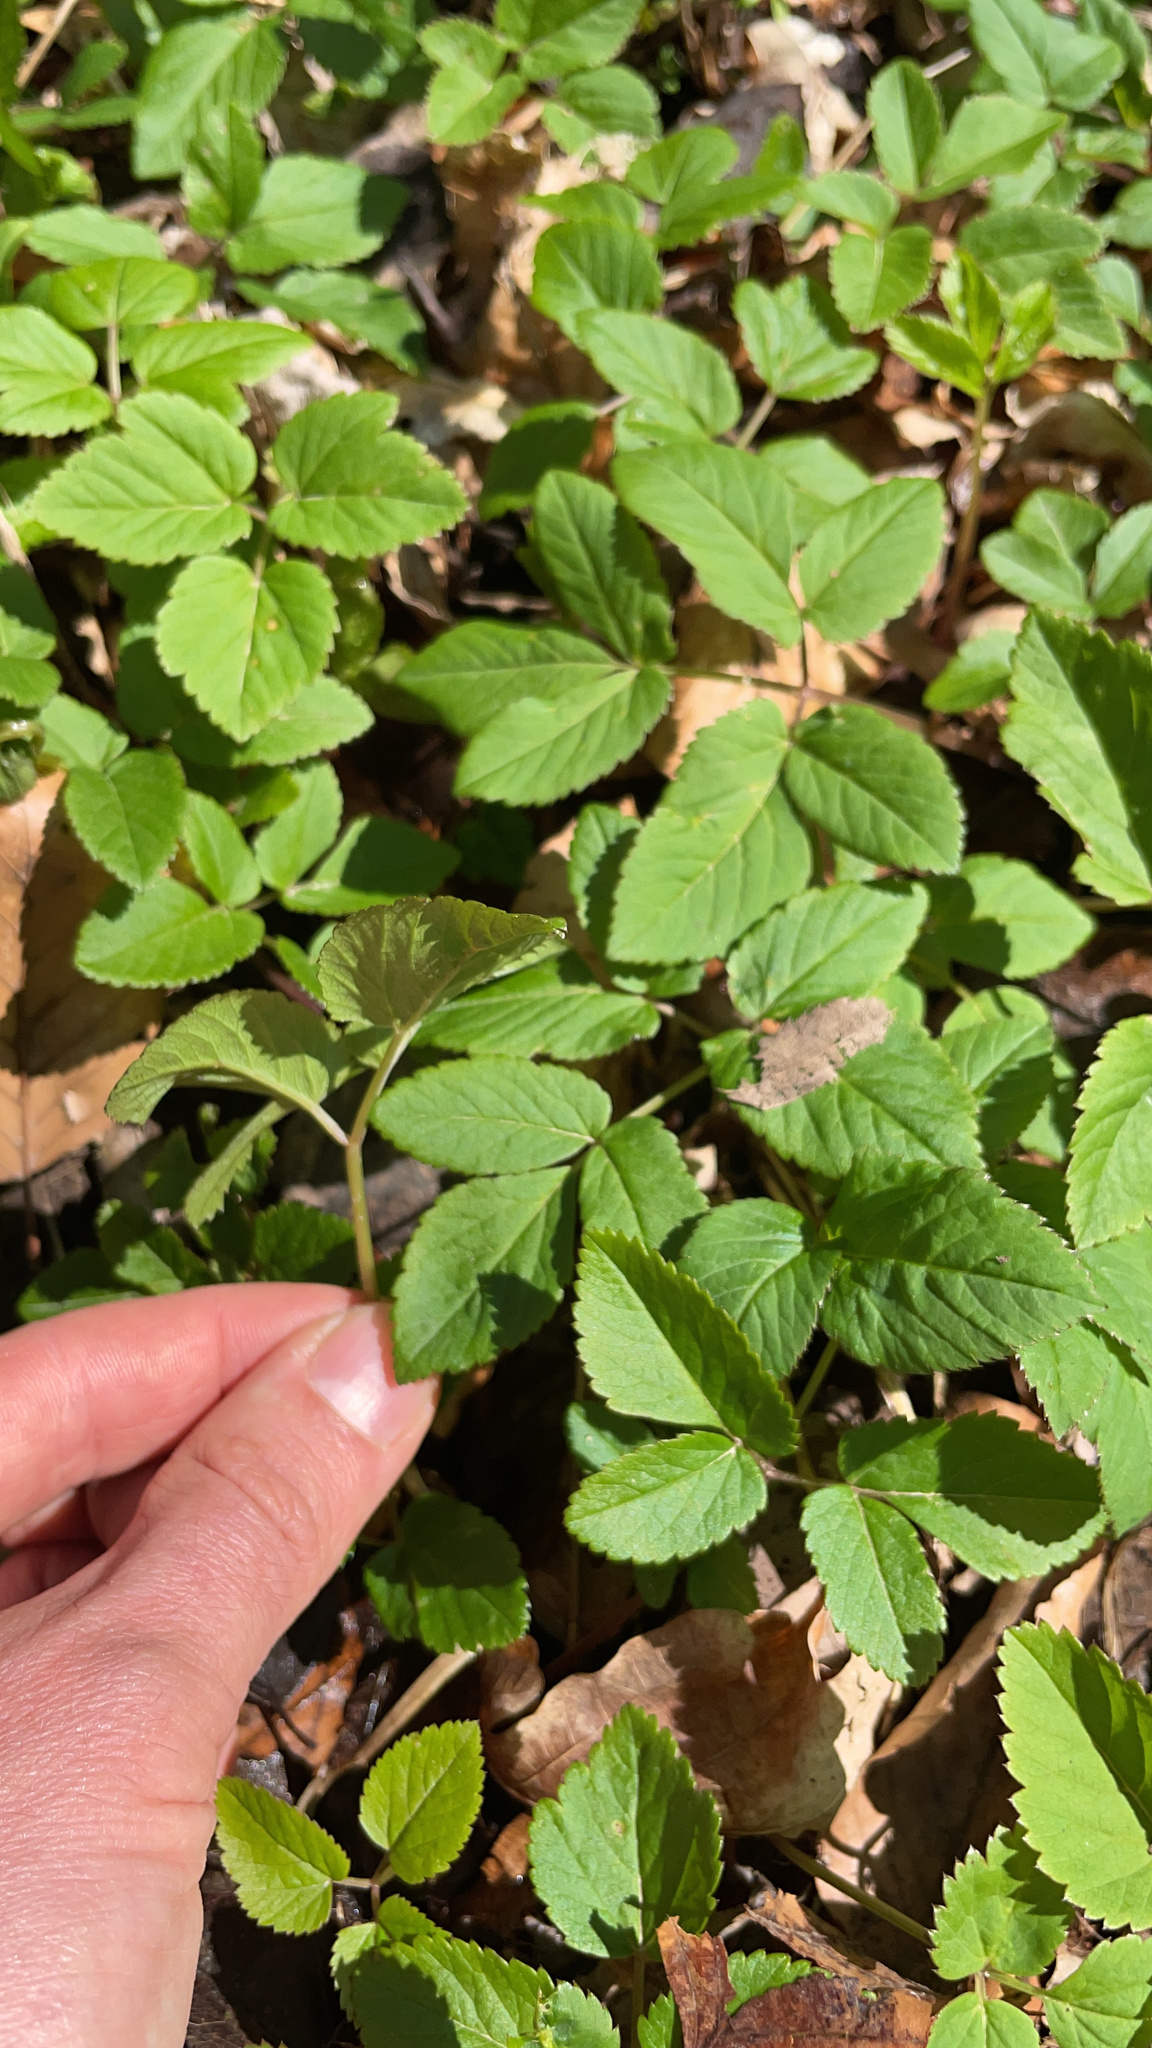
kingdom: Plantae
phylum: Tracheophyta
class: Magnoliopsida
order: Apiales
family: Apiaceae
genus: Aegopodium
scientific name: Aegopodium podagraria
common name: Ground-elder
